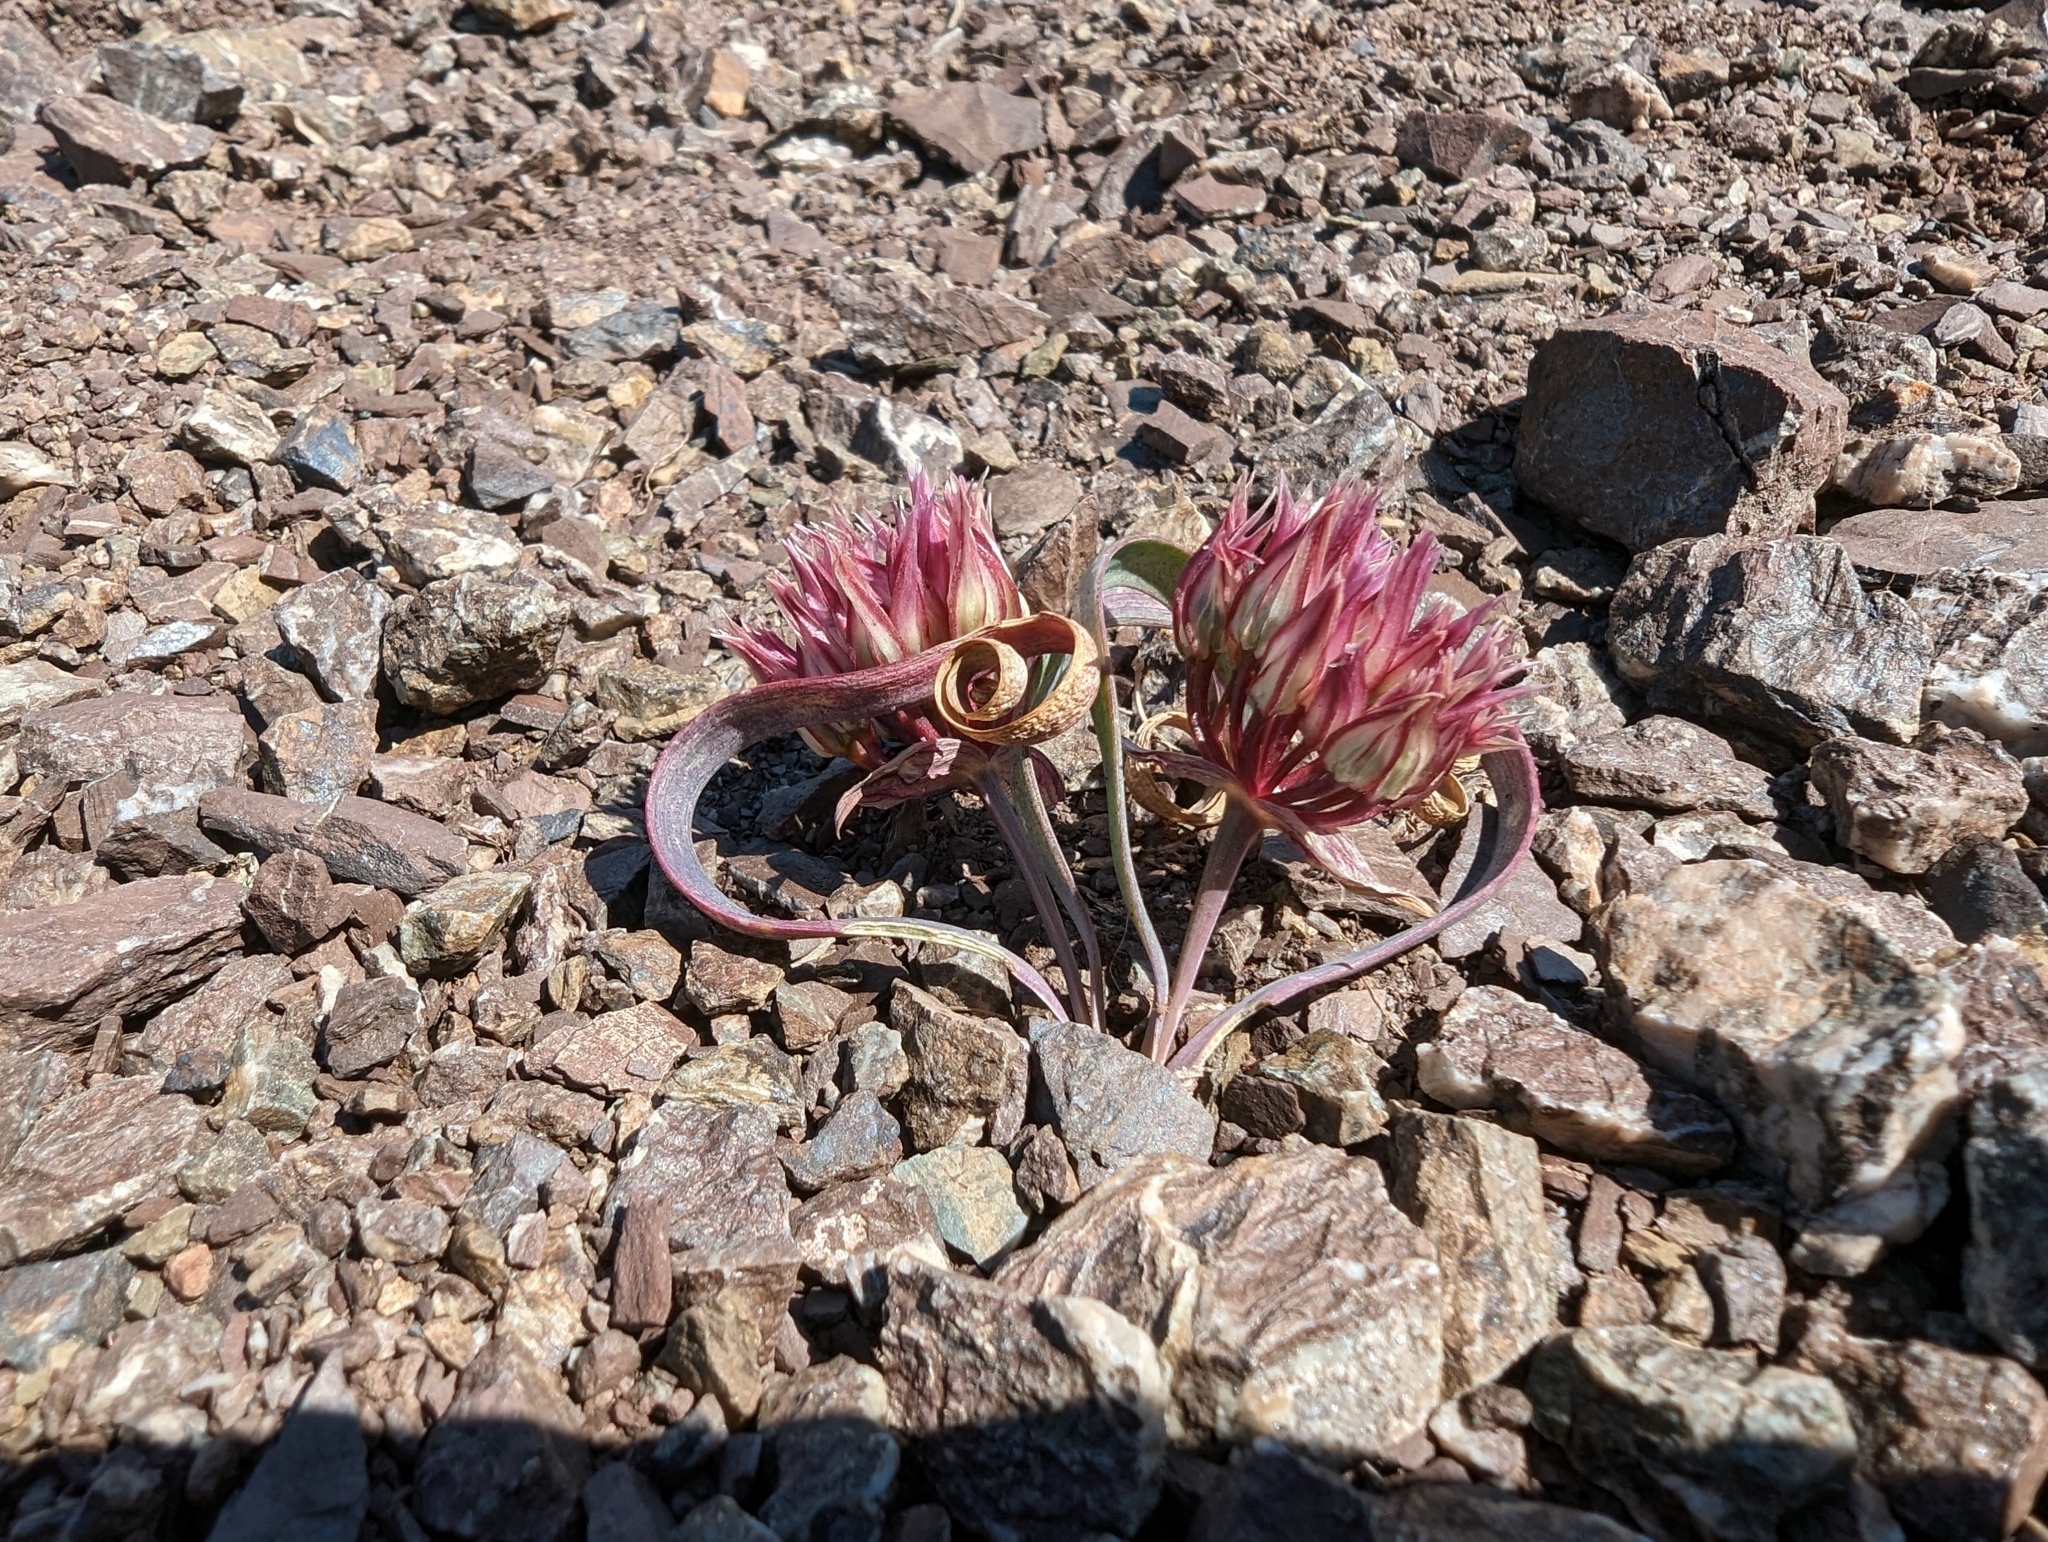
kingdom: Plantae
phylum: Tracheophyta
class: Liliopsida
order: Asparagales
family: Amaryllidaceae
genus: Allium
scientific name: Allium falcifolium
